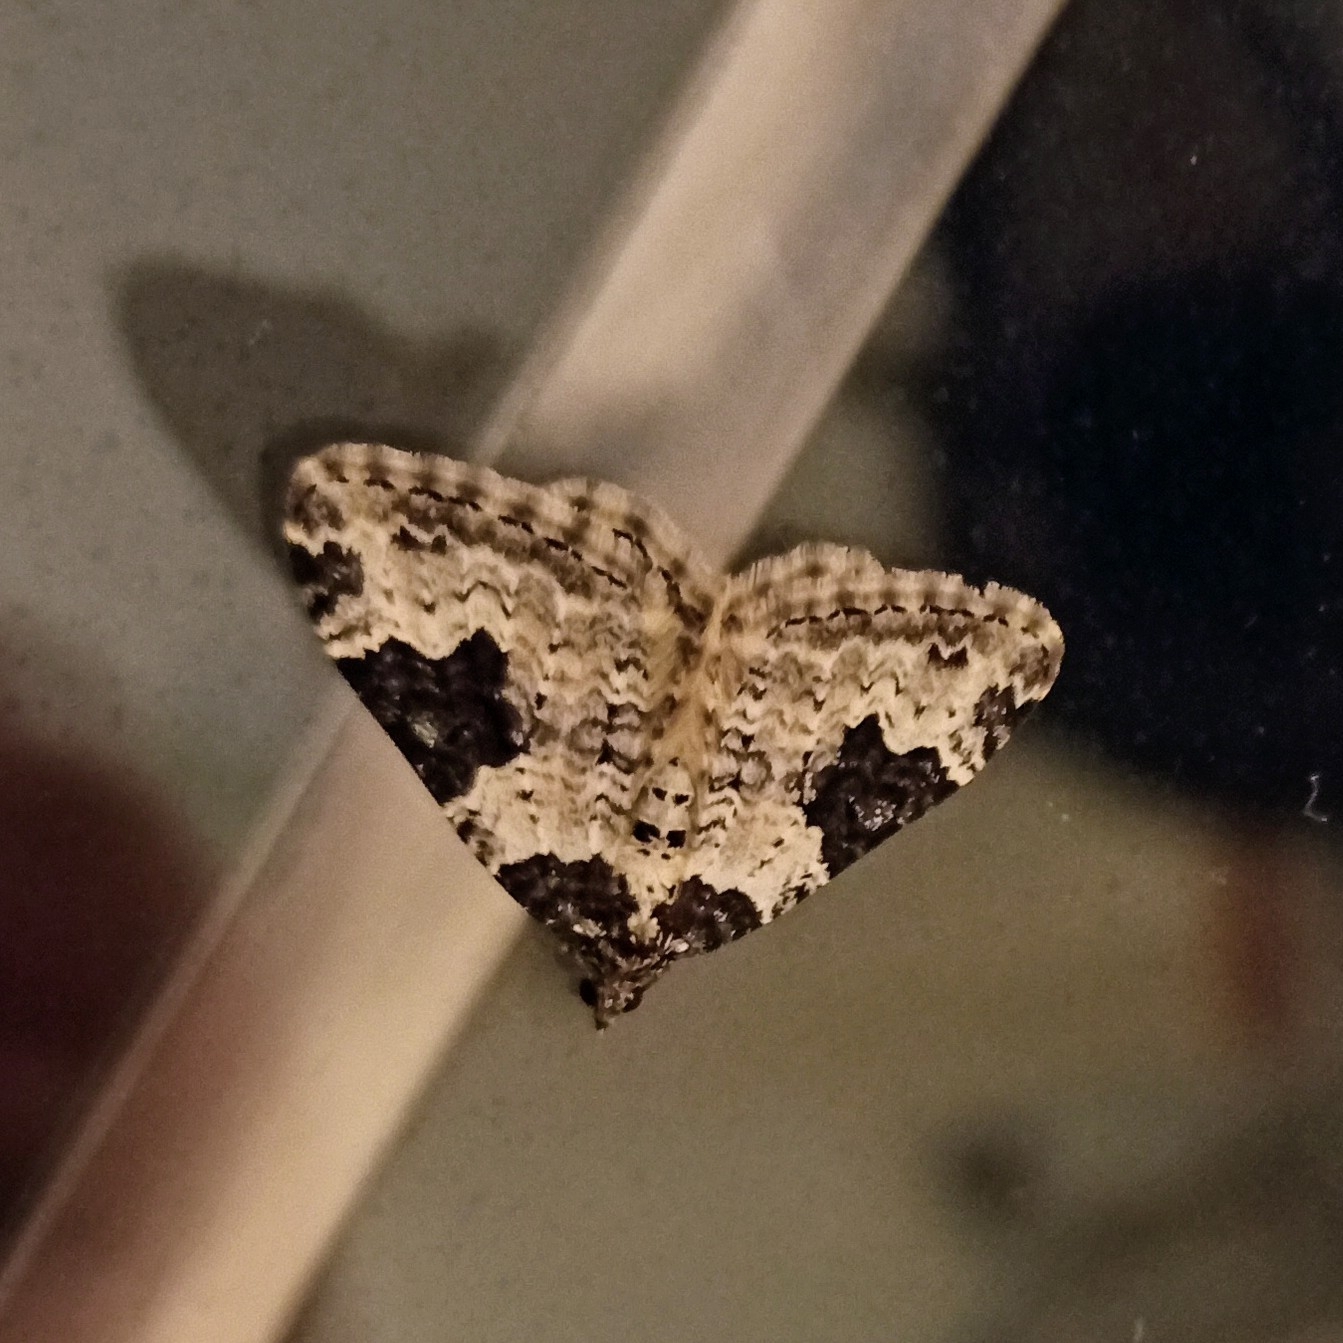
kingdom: Animalia
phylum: Arthropoda
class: Insecta
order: Lepidoptera
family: Geometridae
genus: Xanthorhoe
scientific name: Xanthorhoe fluctuata
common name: Garden carpet
